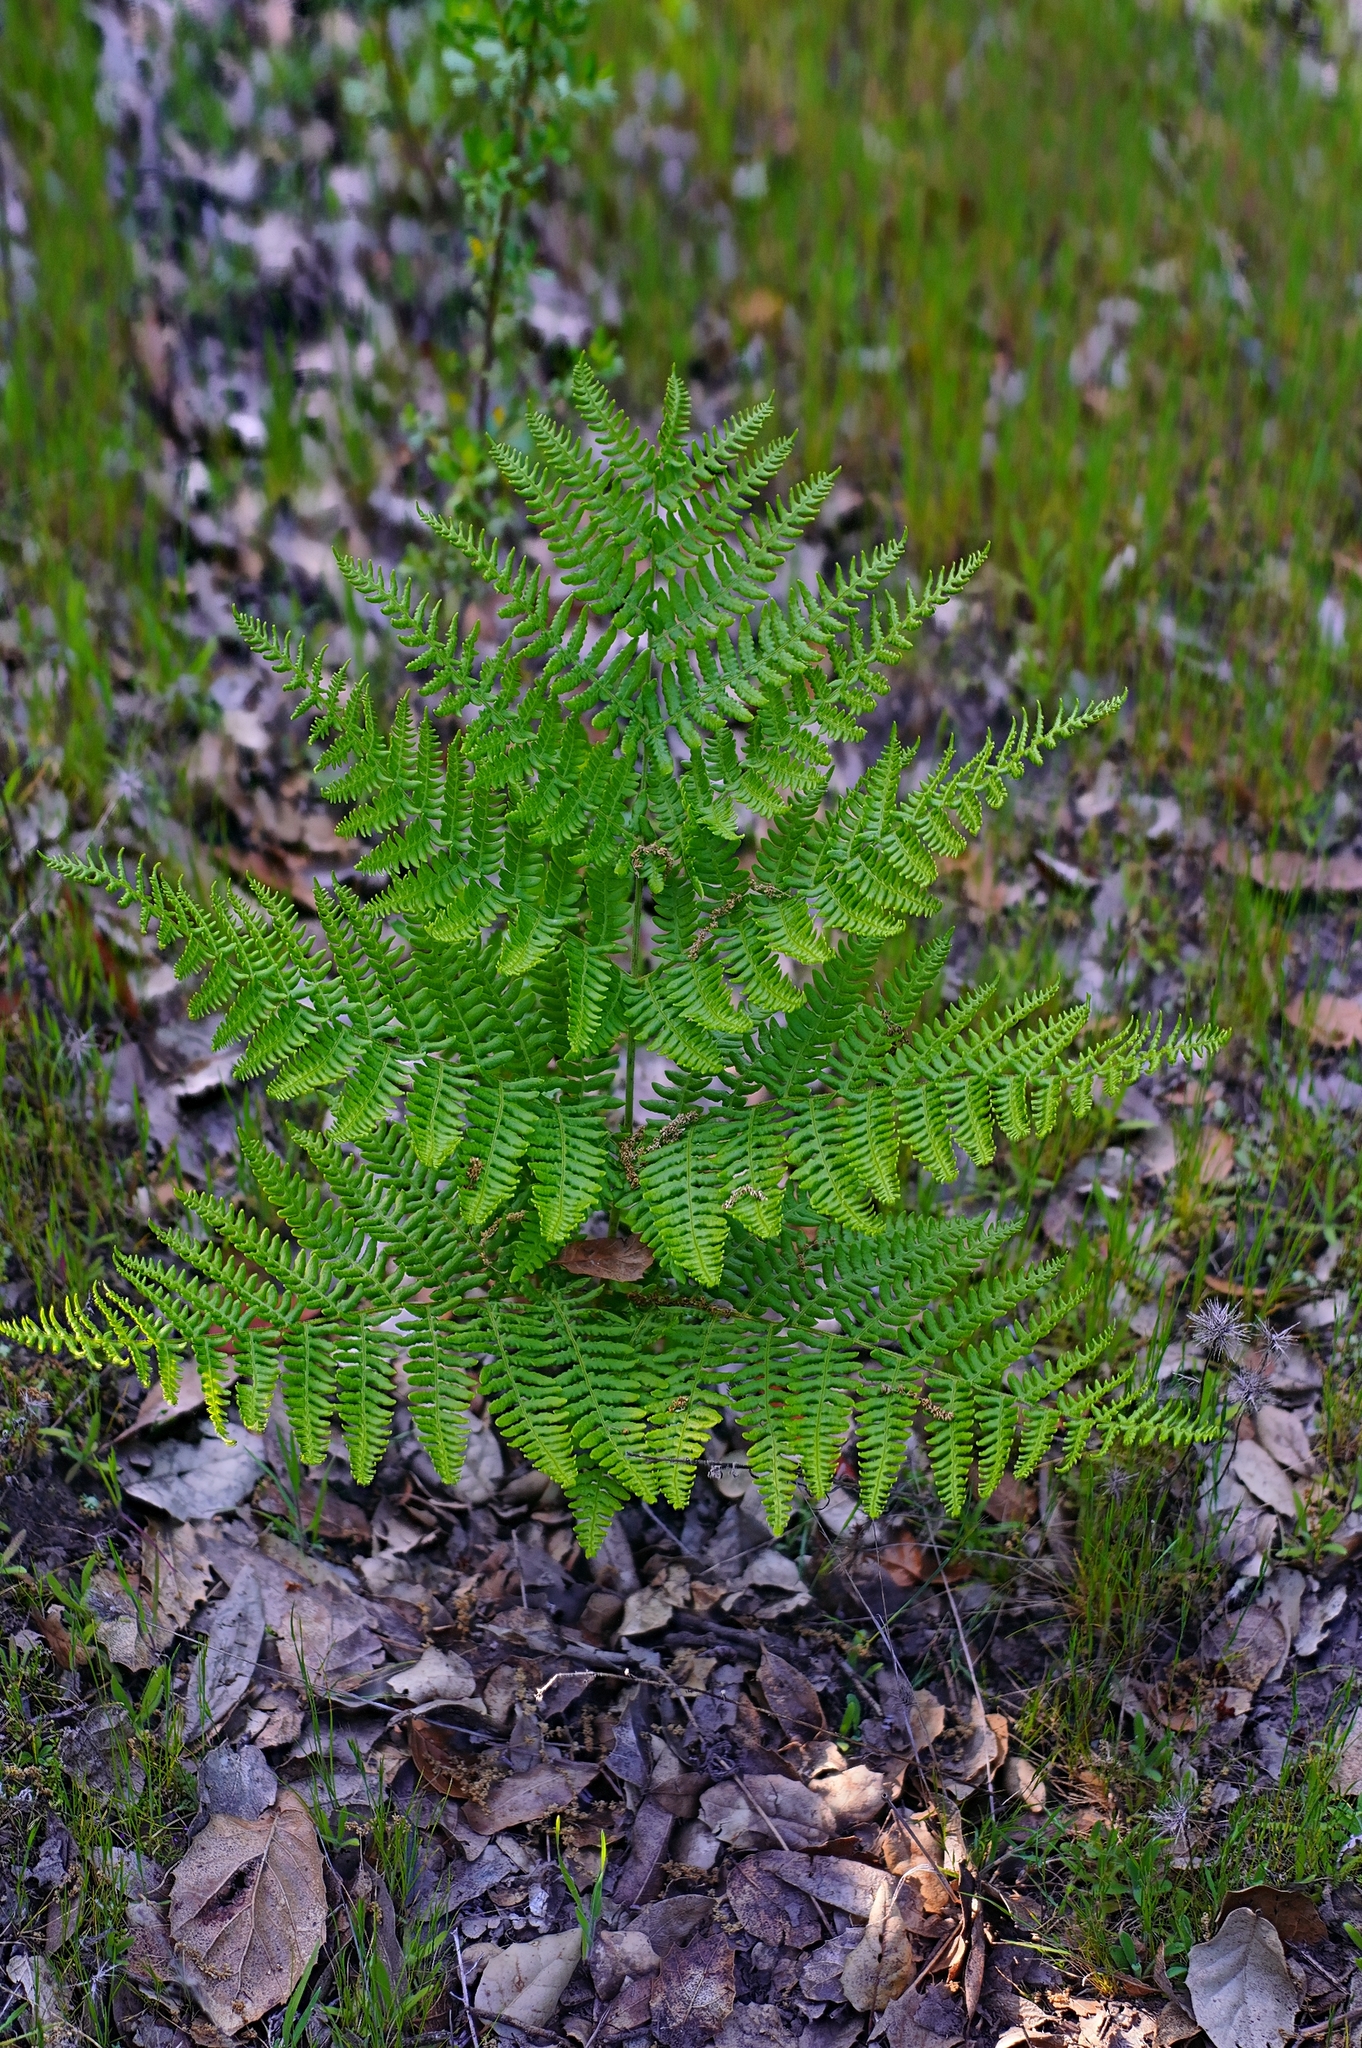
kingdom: Plantae
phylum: Tracheophyta
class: Polypodiopsida
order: Polypodiales
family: Dennstaedtiaceae
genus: Pteridium
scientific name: Pteridium aquilinum
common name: Bracken
